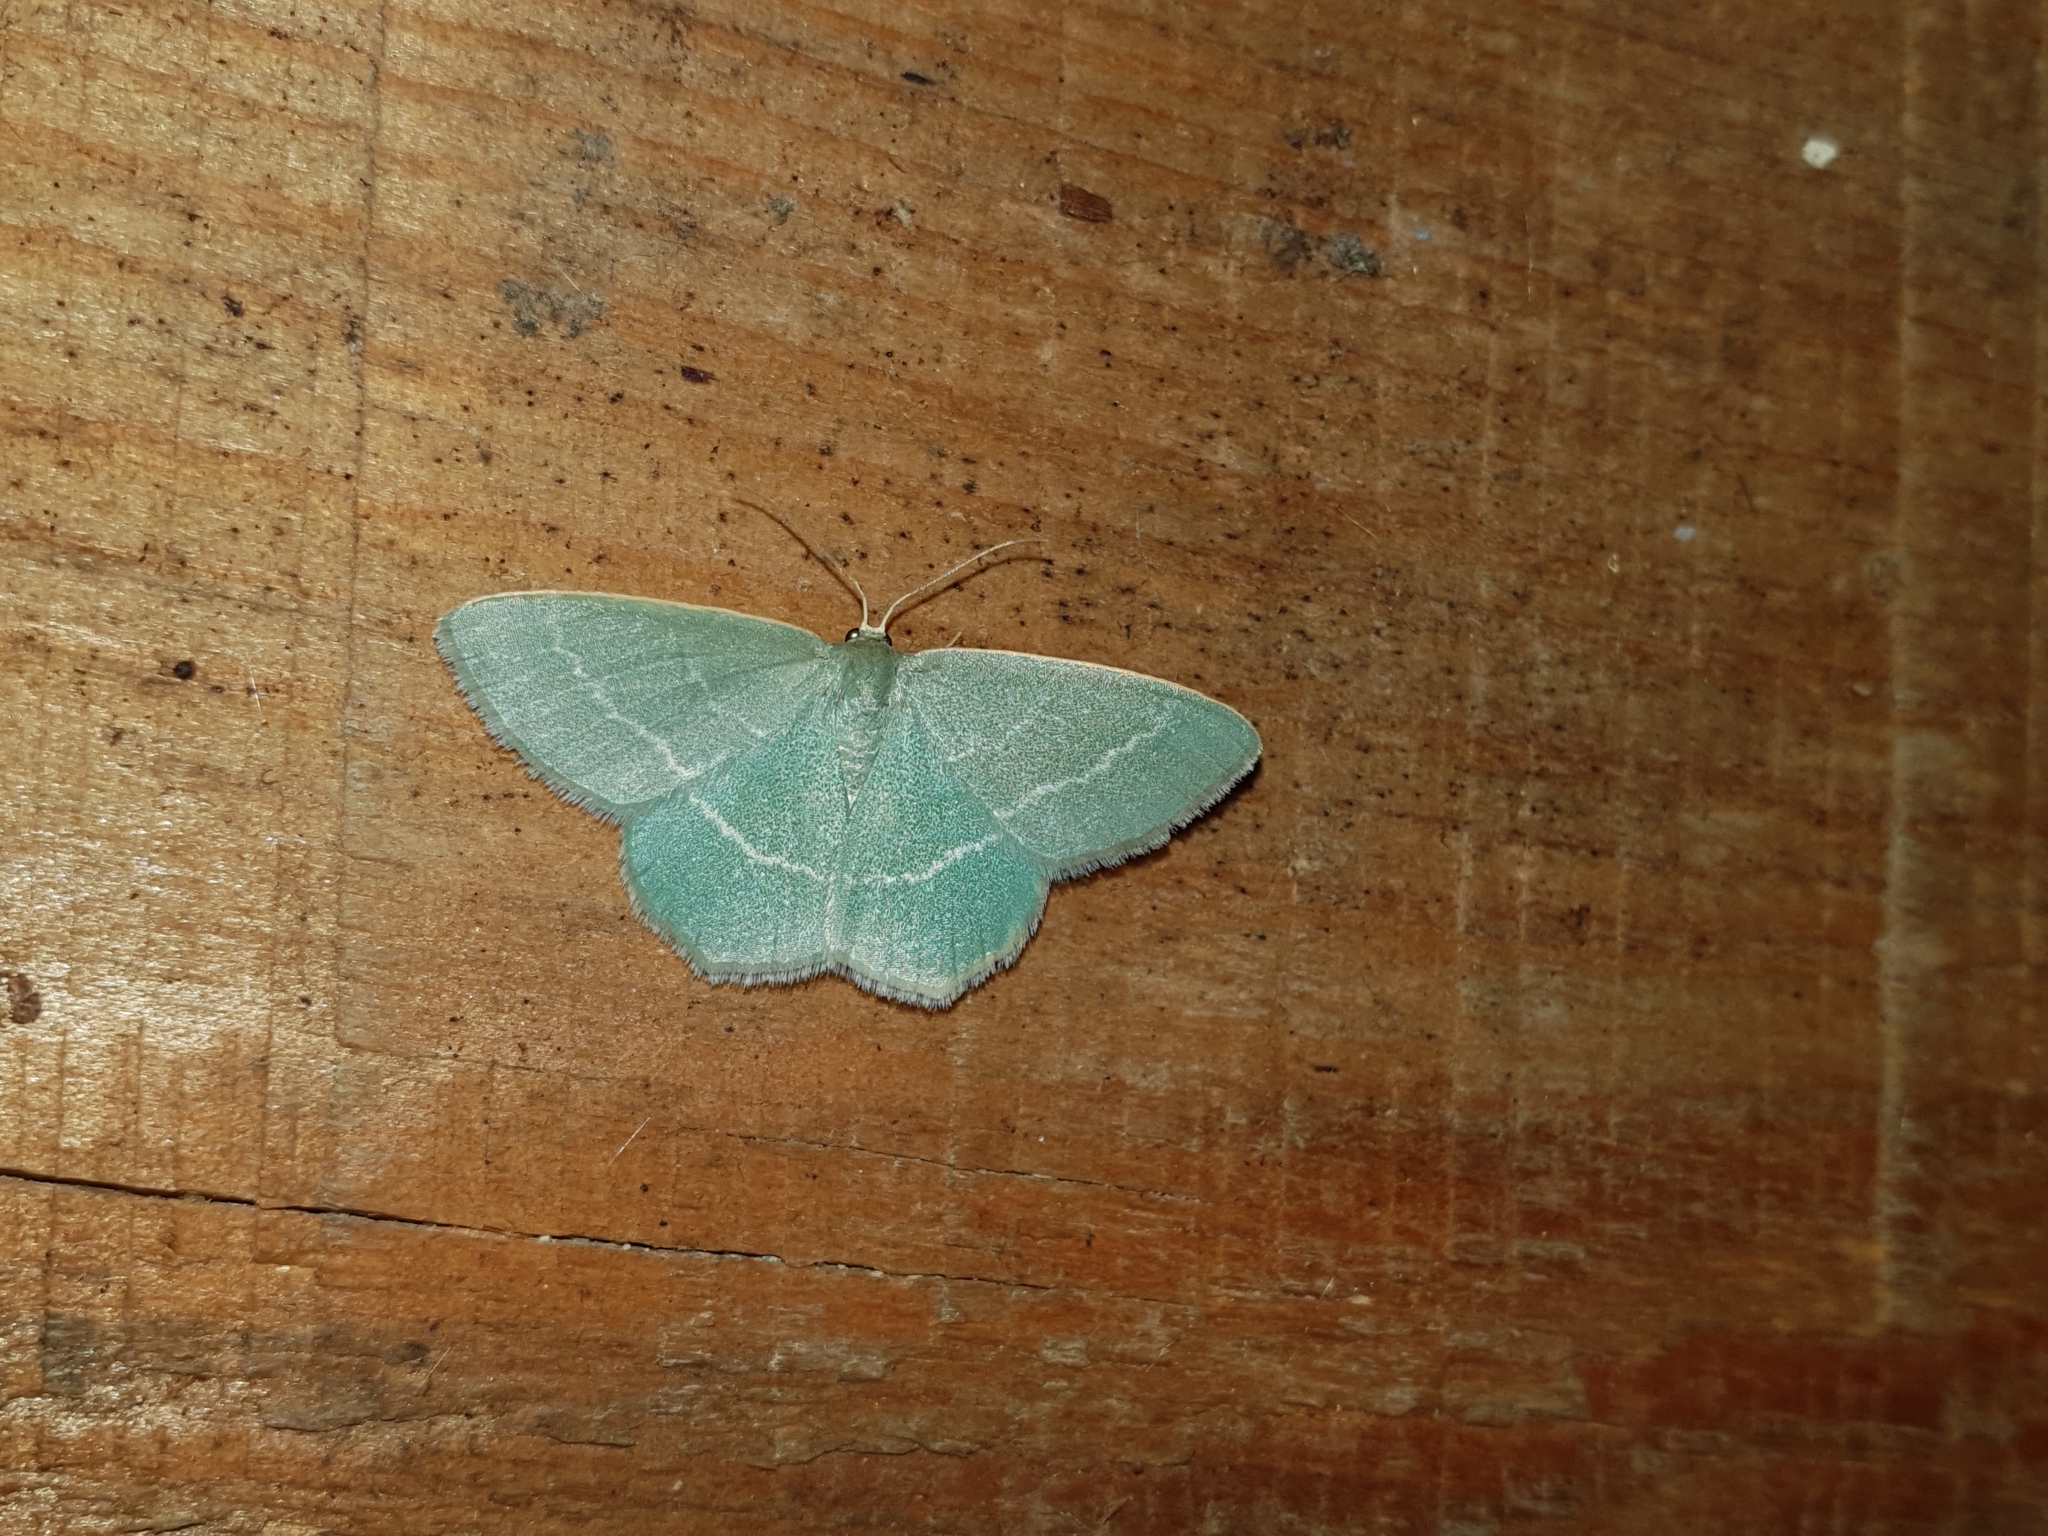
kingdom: Animalia
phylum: Arthropoda
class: Insecta
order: Lepidoptera
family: Geometridae
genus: Chlorissa
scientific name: Chlorissa viridata
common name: Small grass emerald
